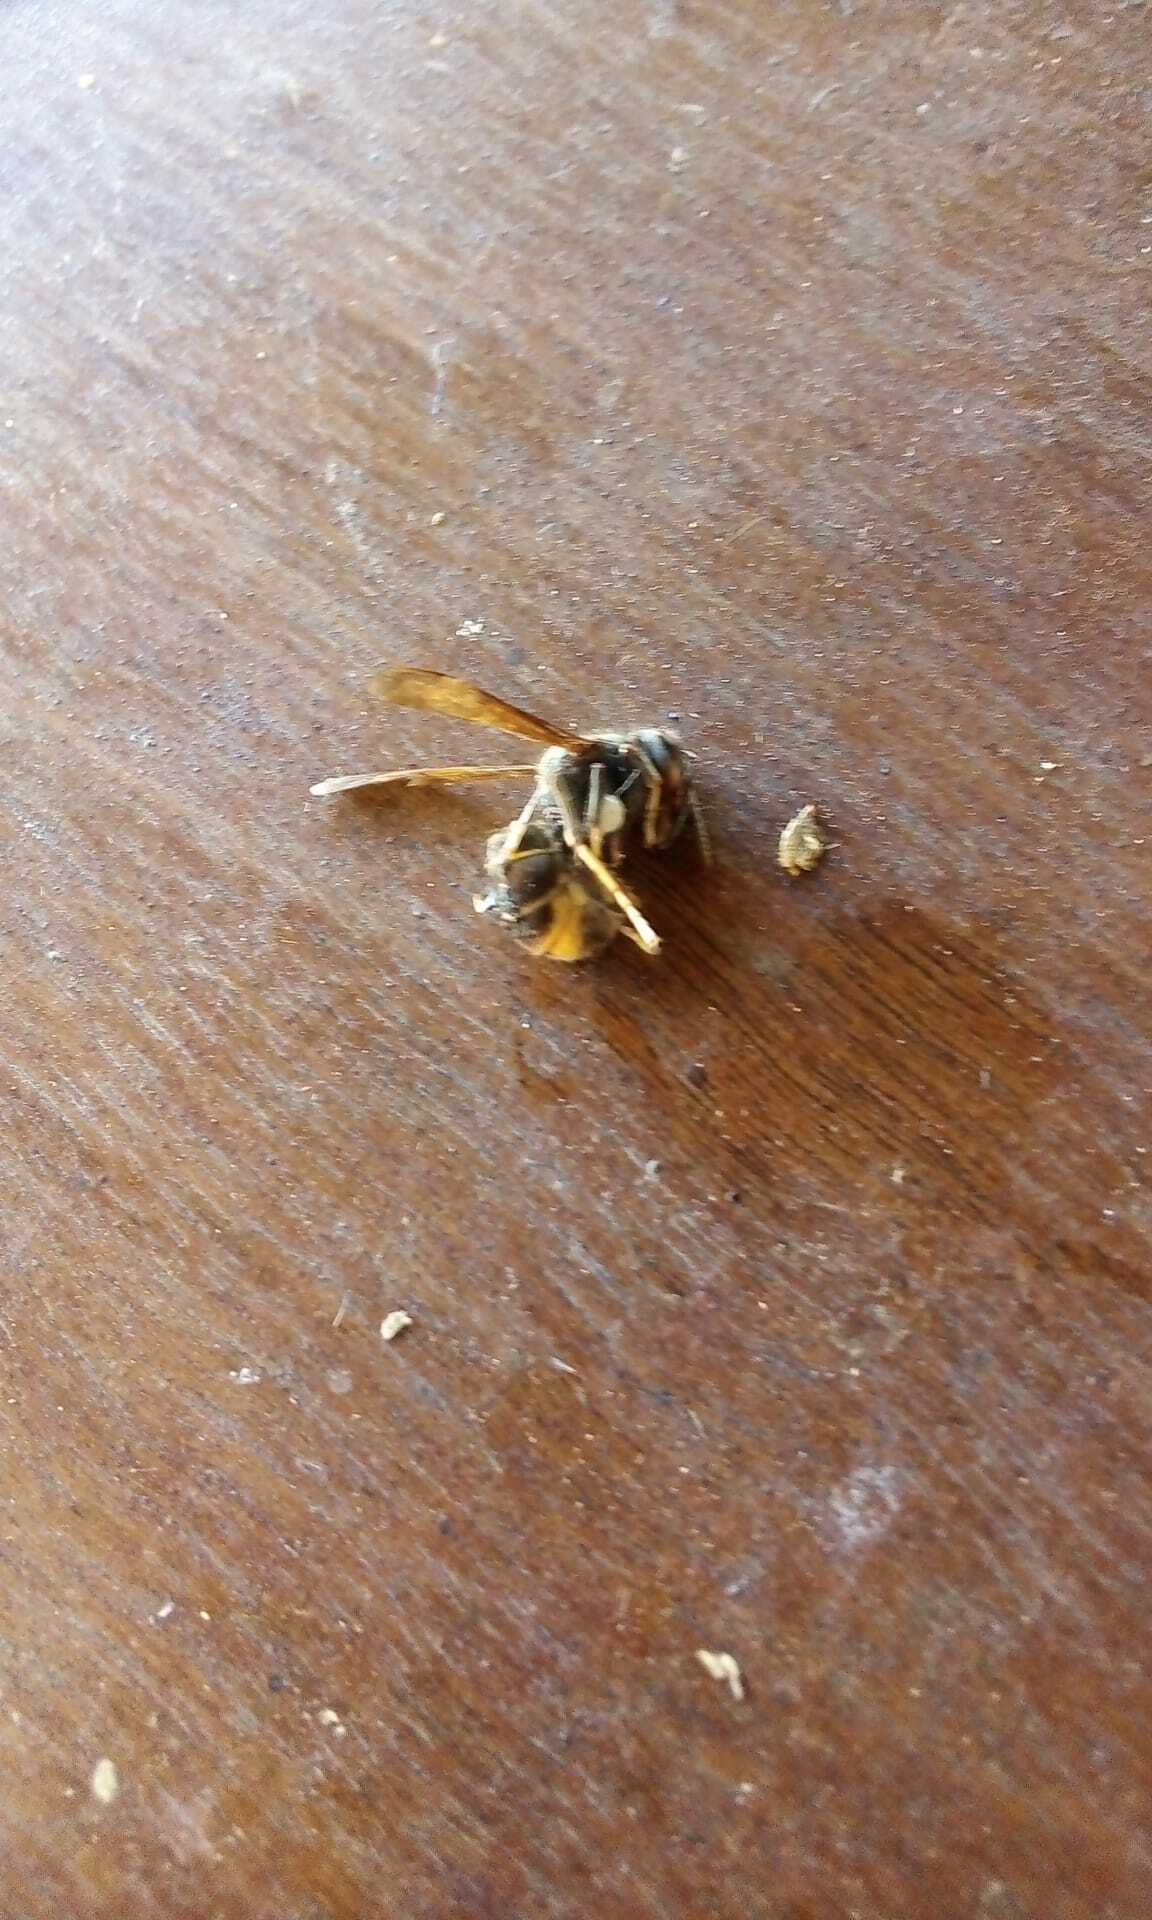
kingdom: Animalia
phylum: Arthropoda
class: Insecta
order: Hymenoptera
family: Vespidae
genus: Vespa
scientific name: Vespa velutina
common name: Asian hornet
